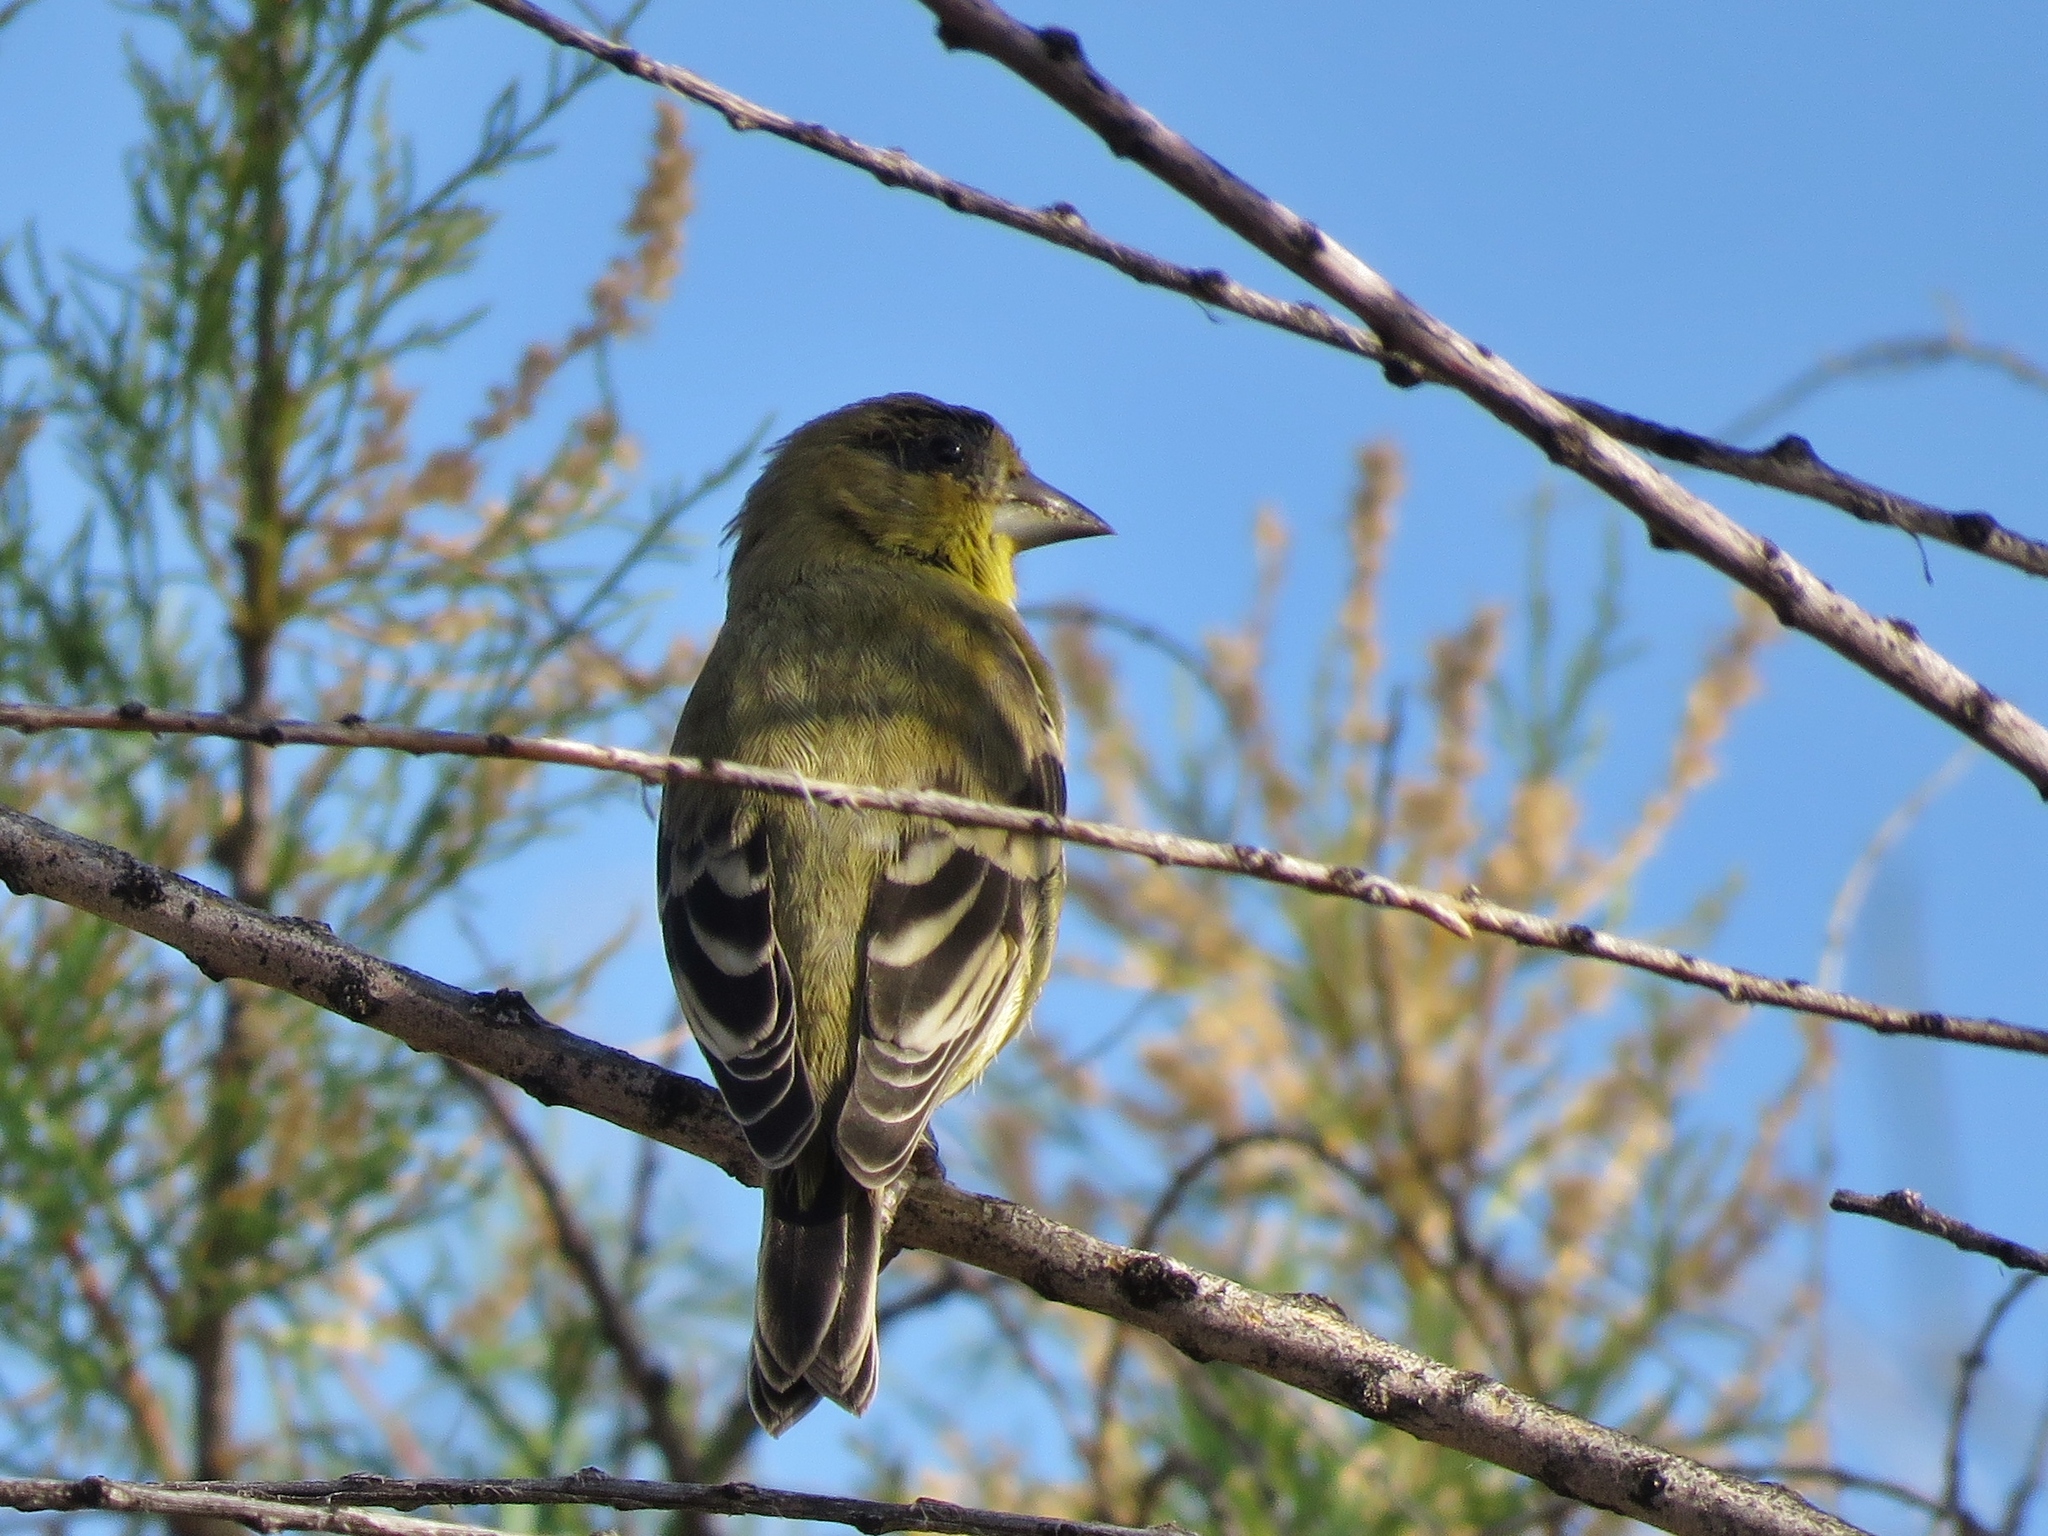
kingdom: Animalia
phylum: Chordata
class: Aves
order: Passeriformes
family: Fringillidae
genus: Spinus
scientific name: Spinus psaltria
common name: Lesser goldfinch
